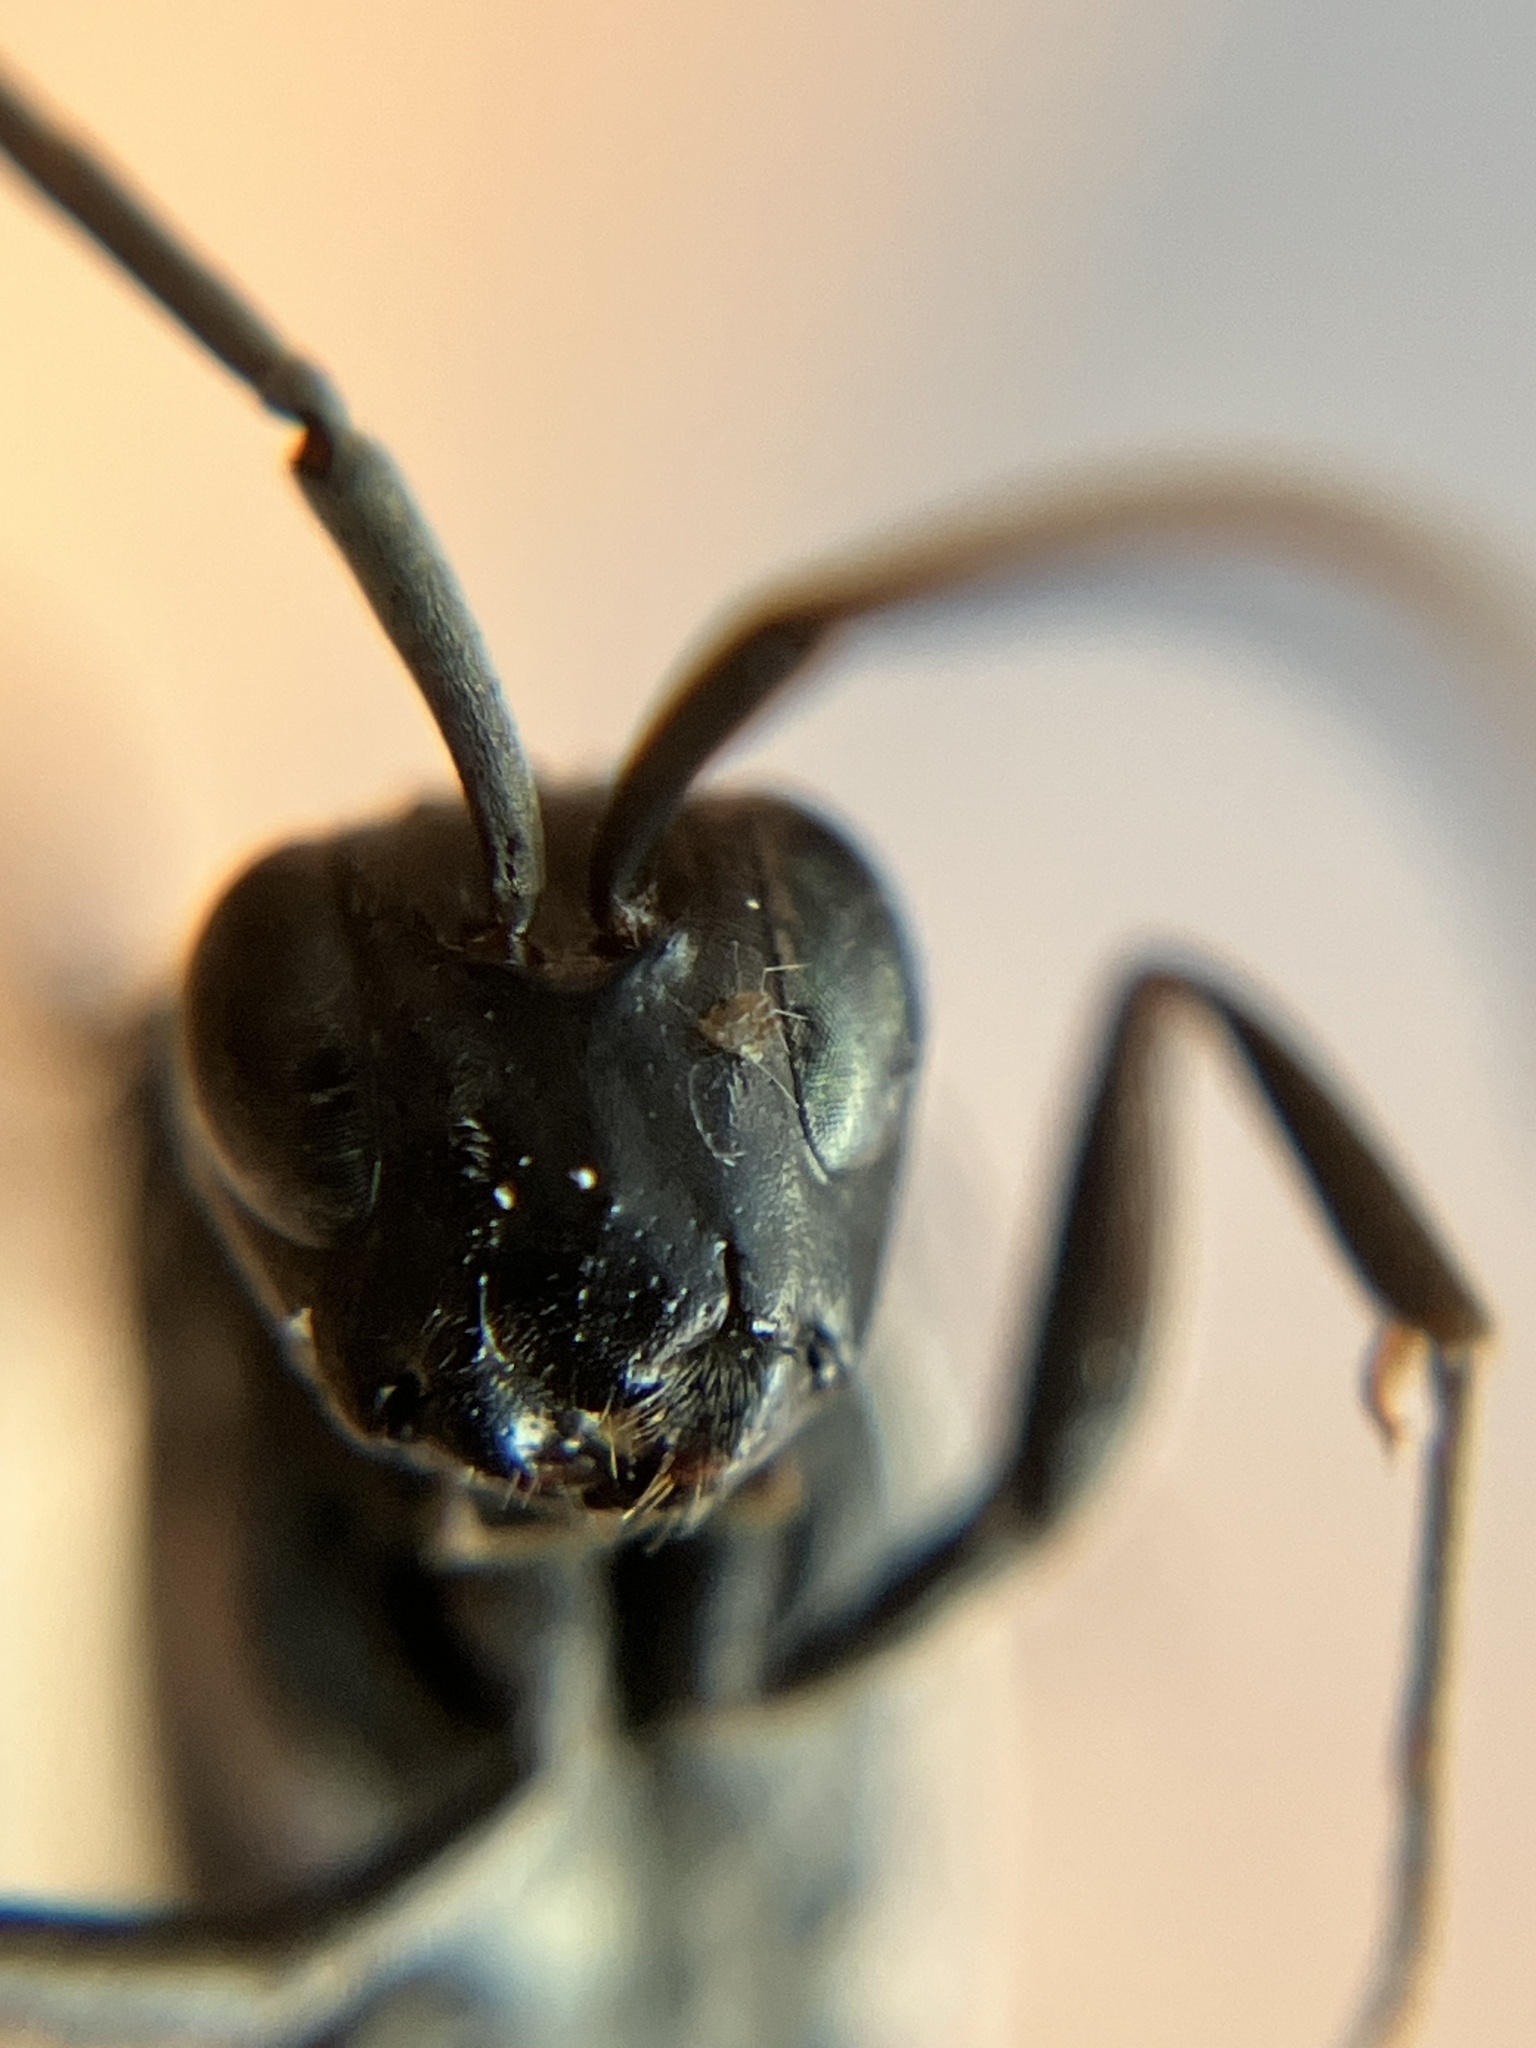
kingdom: Animalia
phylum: Arthropoda
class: Insecta
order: Hymenoptera
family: Evaniidae
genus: Evania
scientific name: Evania appendigaster
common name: Ensign wasp
